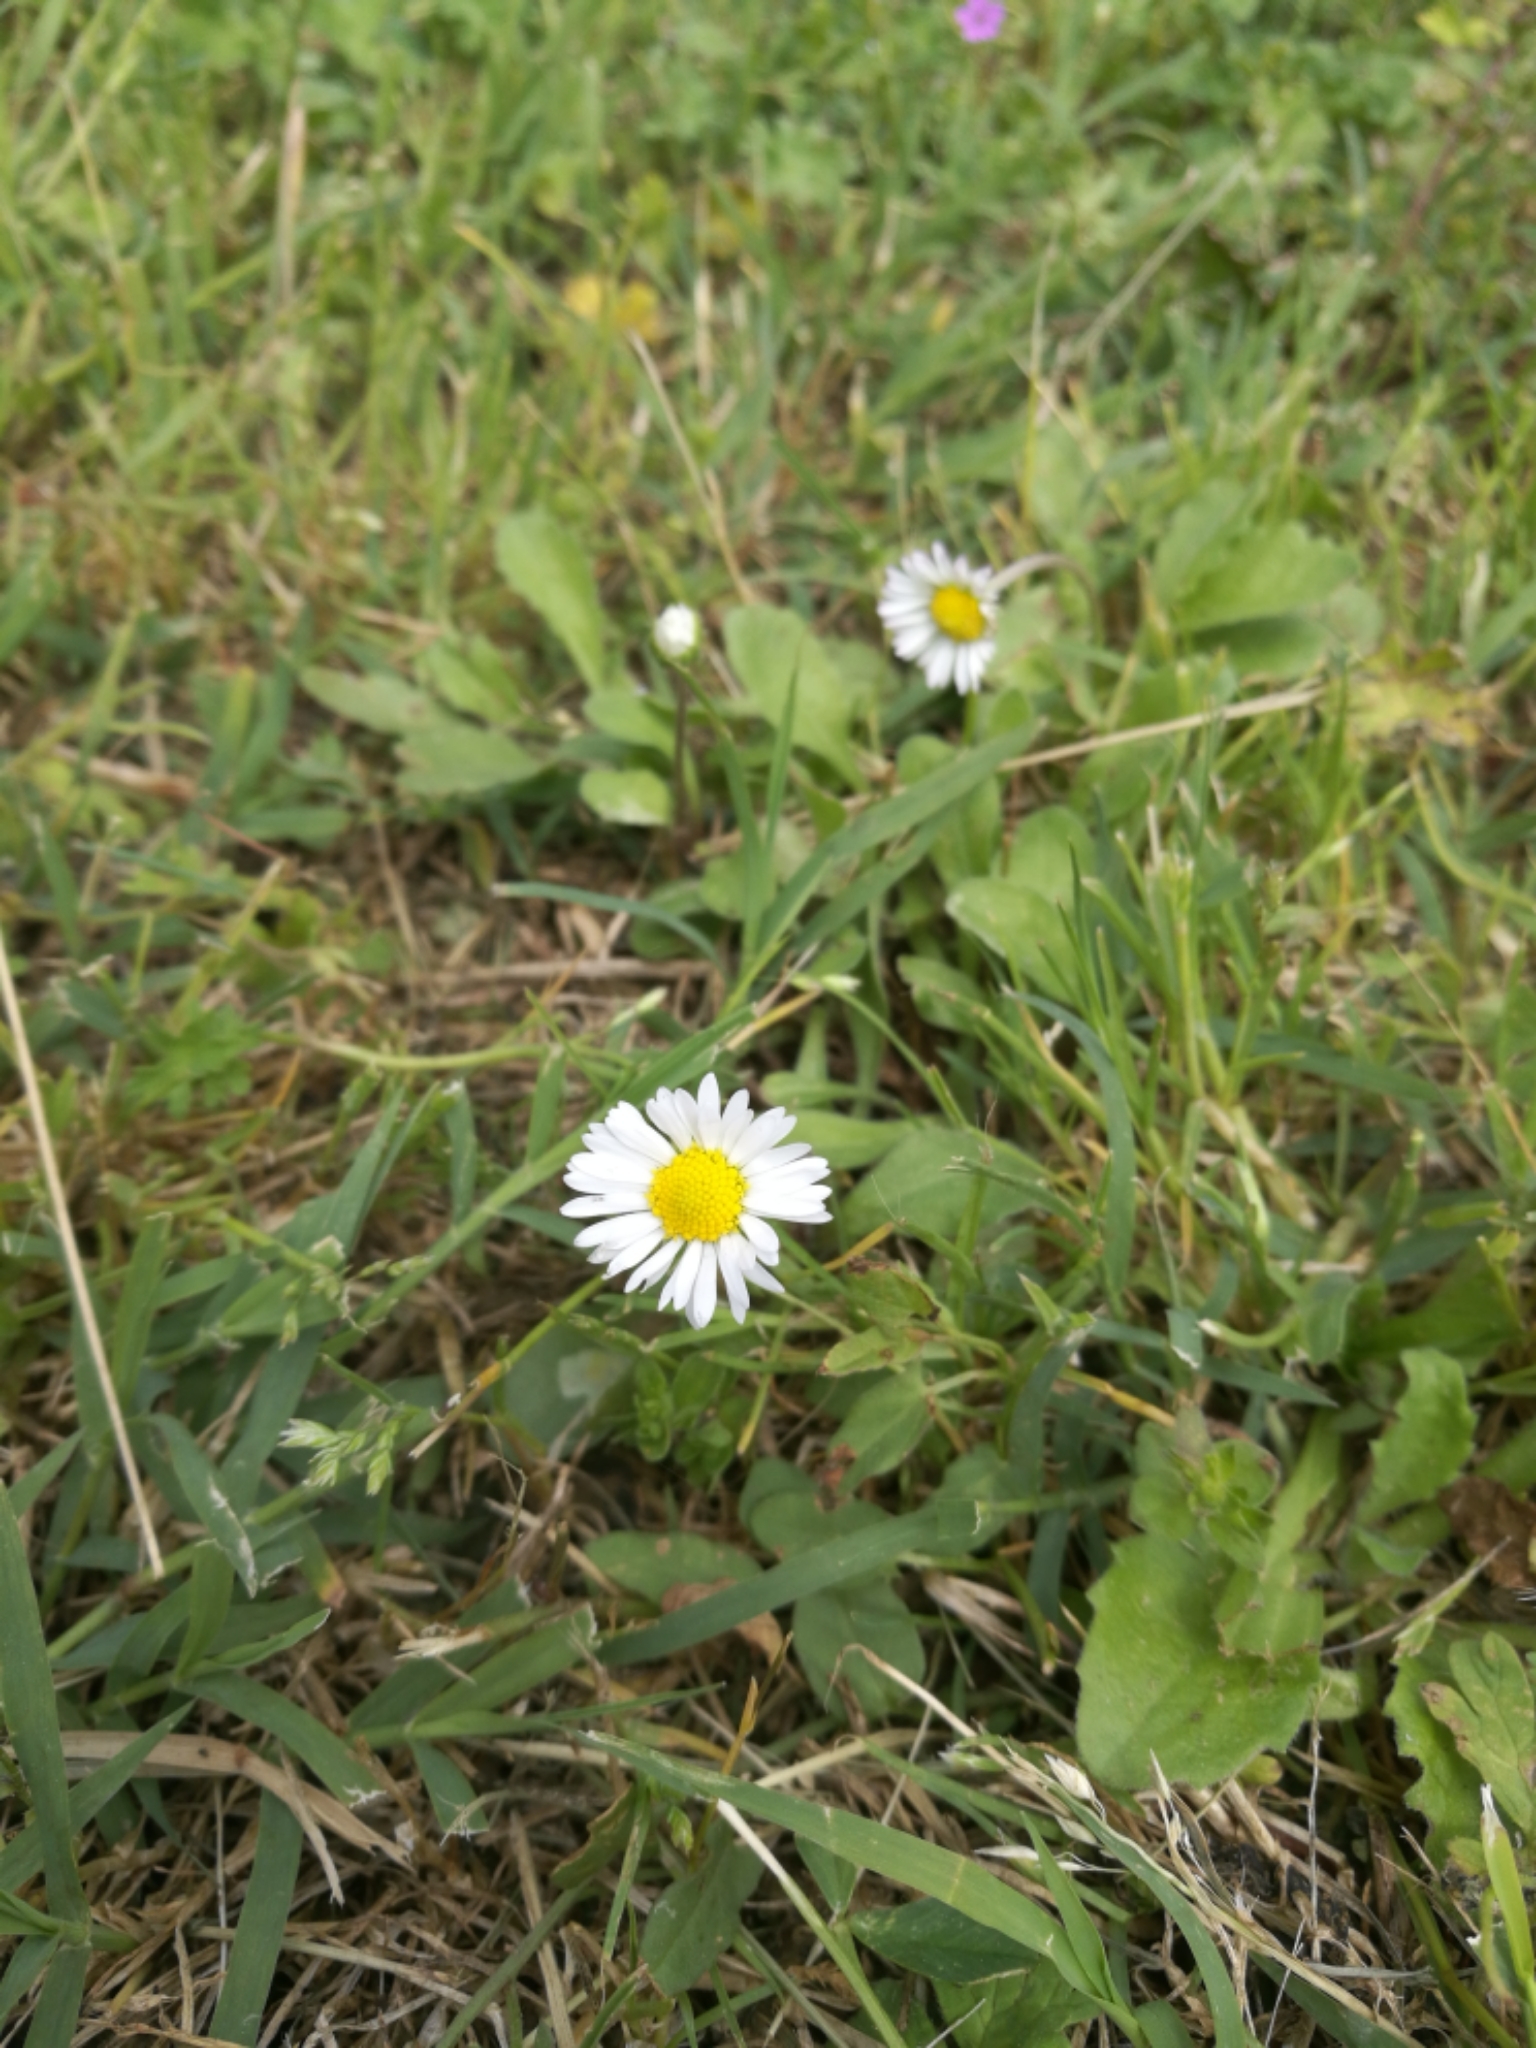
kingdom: Plantae
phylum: Tracheophyta
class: Magnoliopsida
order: Asterales
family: Asteraceae
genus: Bellis
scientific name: Bellis perennis
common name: Lawndaisy
